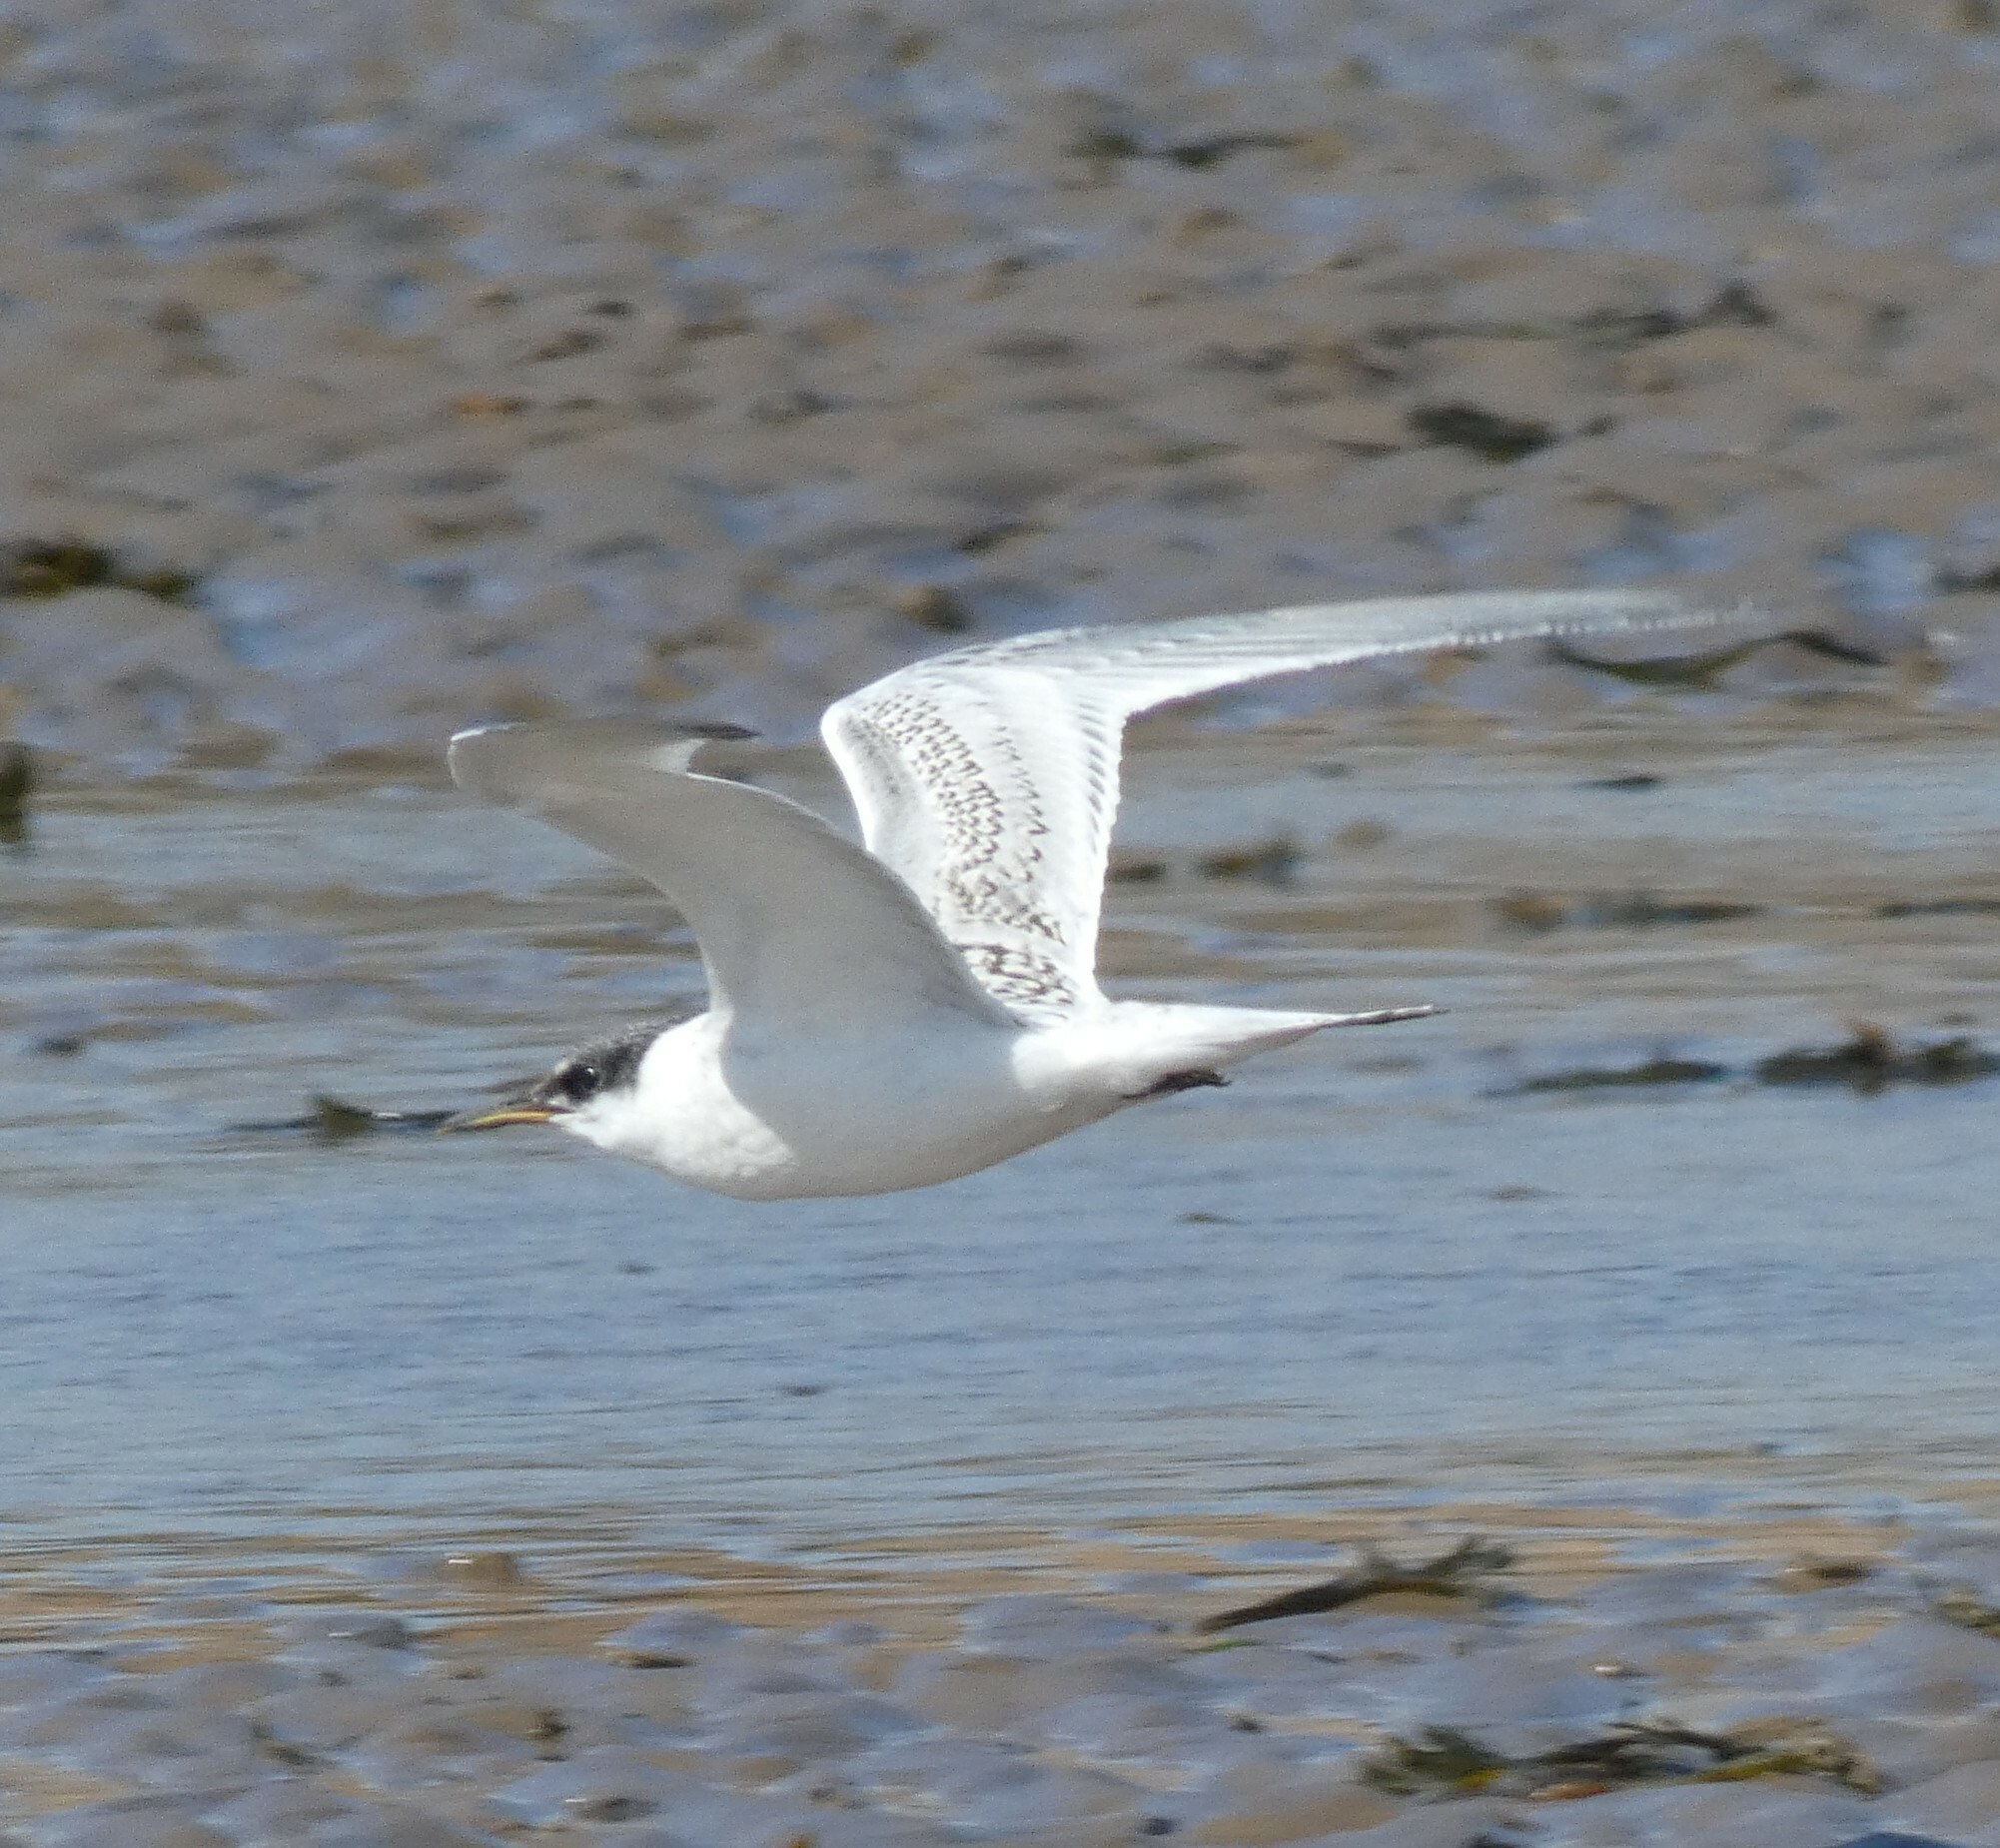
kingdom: Animalia
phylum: Chordata
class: Aves
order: Charadriiformes
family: Laridae
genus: Thalasseus
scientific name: Thalasseus sandvicensis
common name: Sandwich tern
